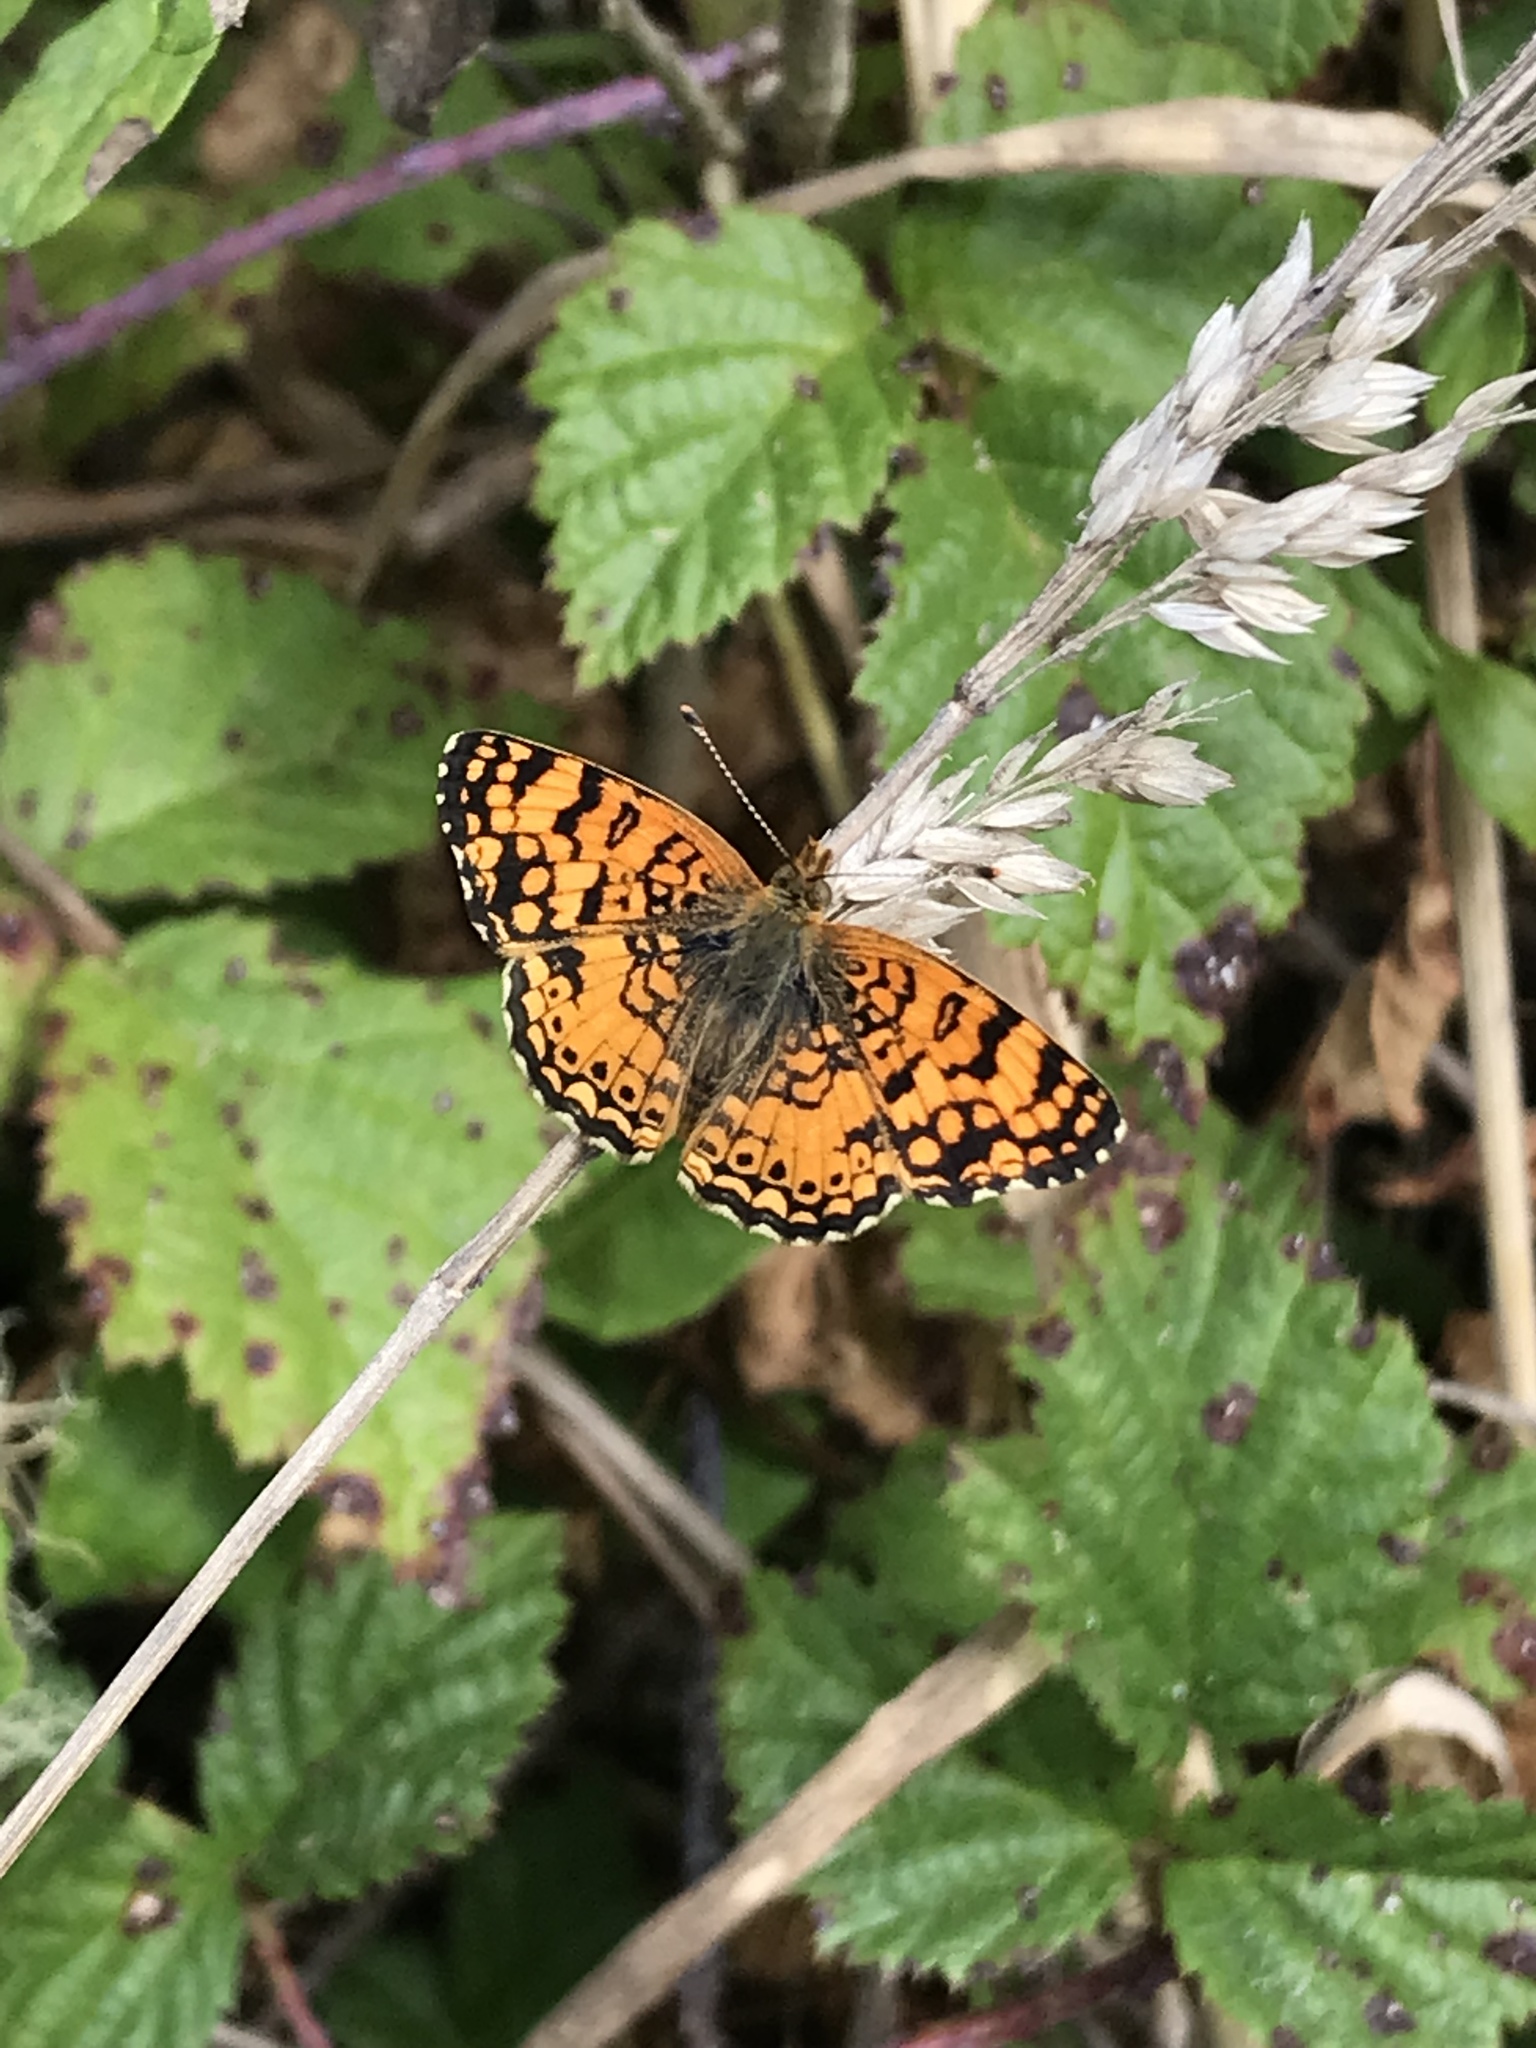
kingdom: Animalia
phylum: Arthropoda
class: Insecta
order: Lepidoptera
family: Nymphalidae
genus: Eresia
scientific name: Eresia aveyrona
